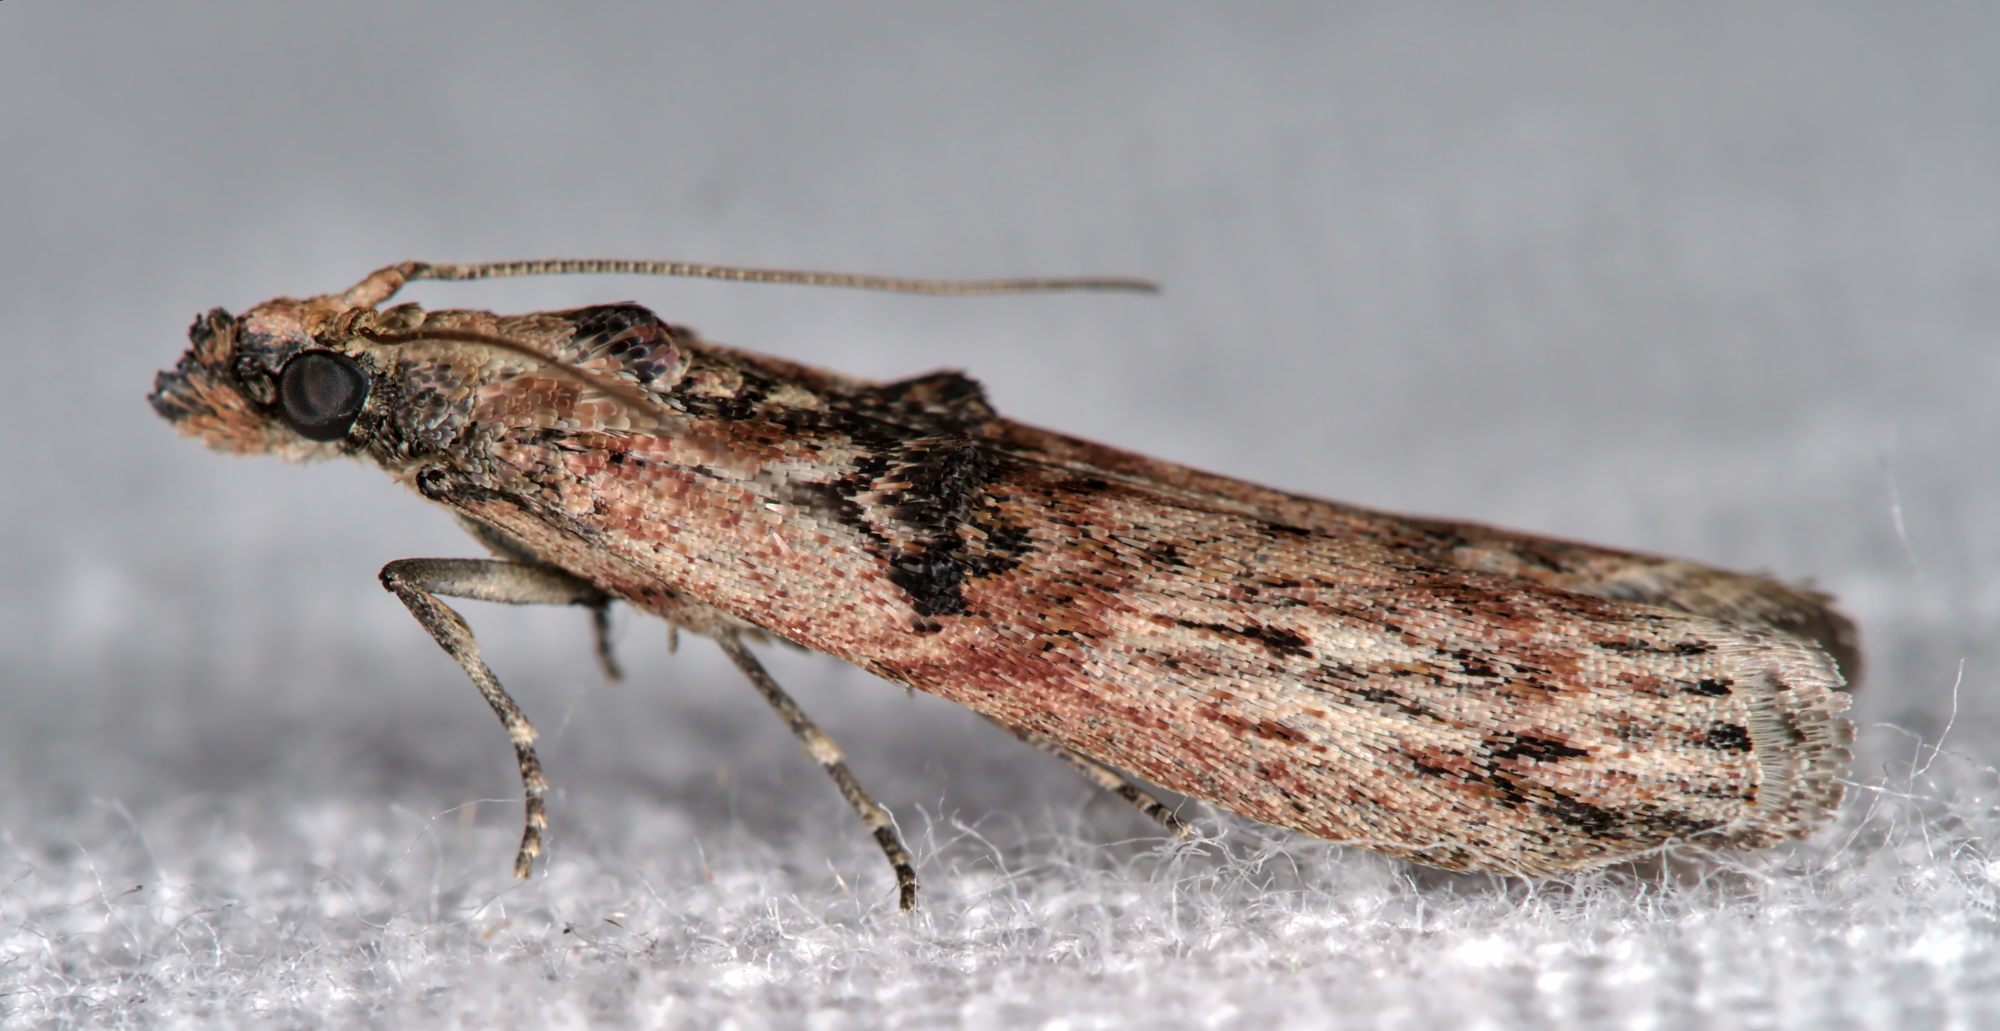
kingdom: Animalia
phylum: Arthropoda
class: Insecta
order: Lepidoptera
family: Pyralidae
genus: Nephopterix
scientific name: Nephopterix angustella
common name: Spindle knot-horn
